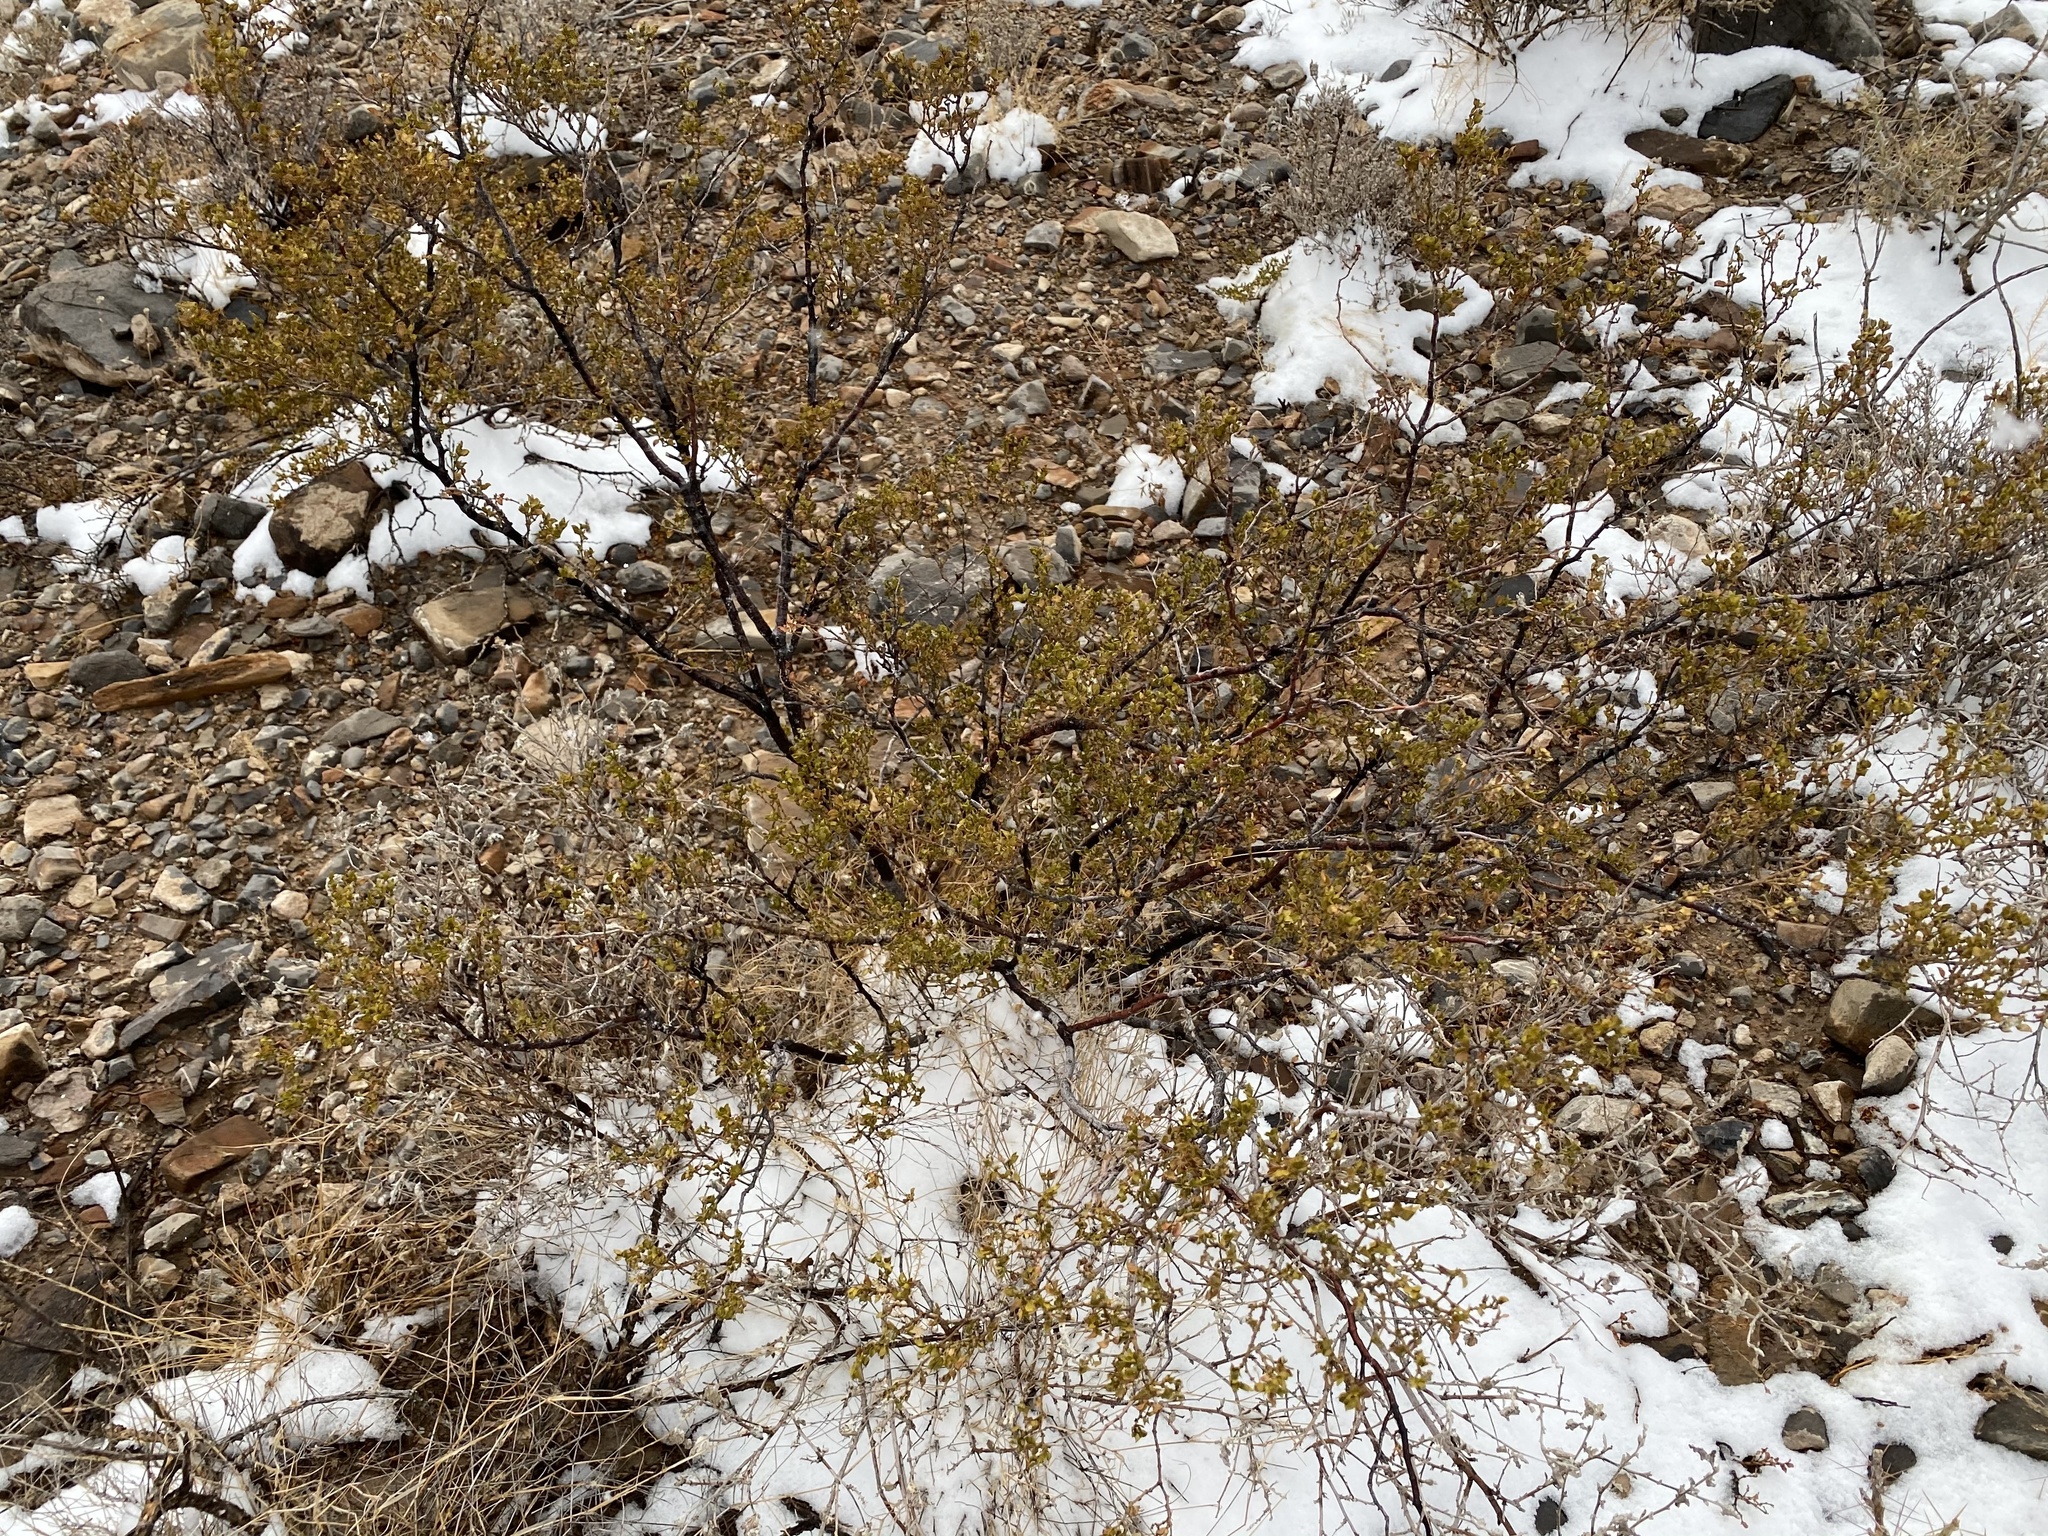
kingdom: Plantae
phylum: Tracheophyta
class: Magnoliopsida
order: Zygophyllales
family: Zygophyllaceae
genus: Larrea
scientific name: Larrea tridentata
